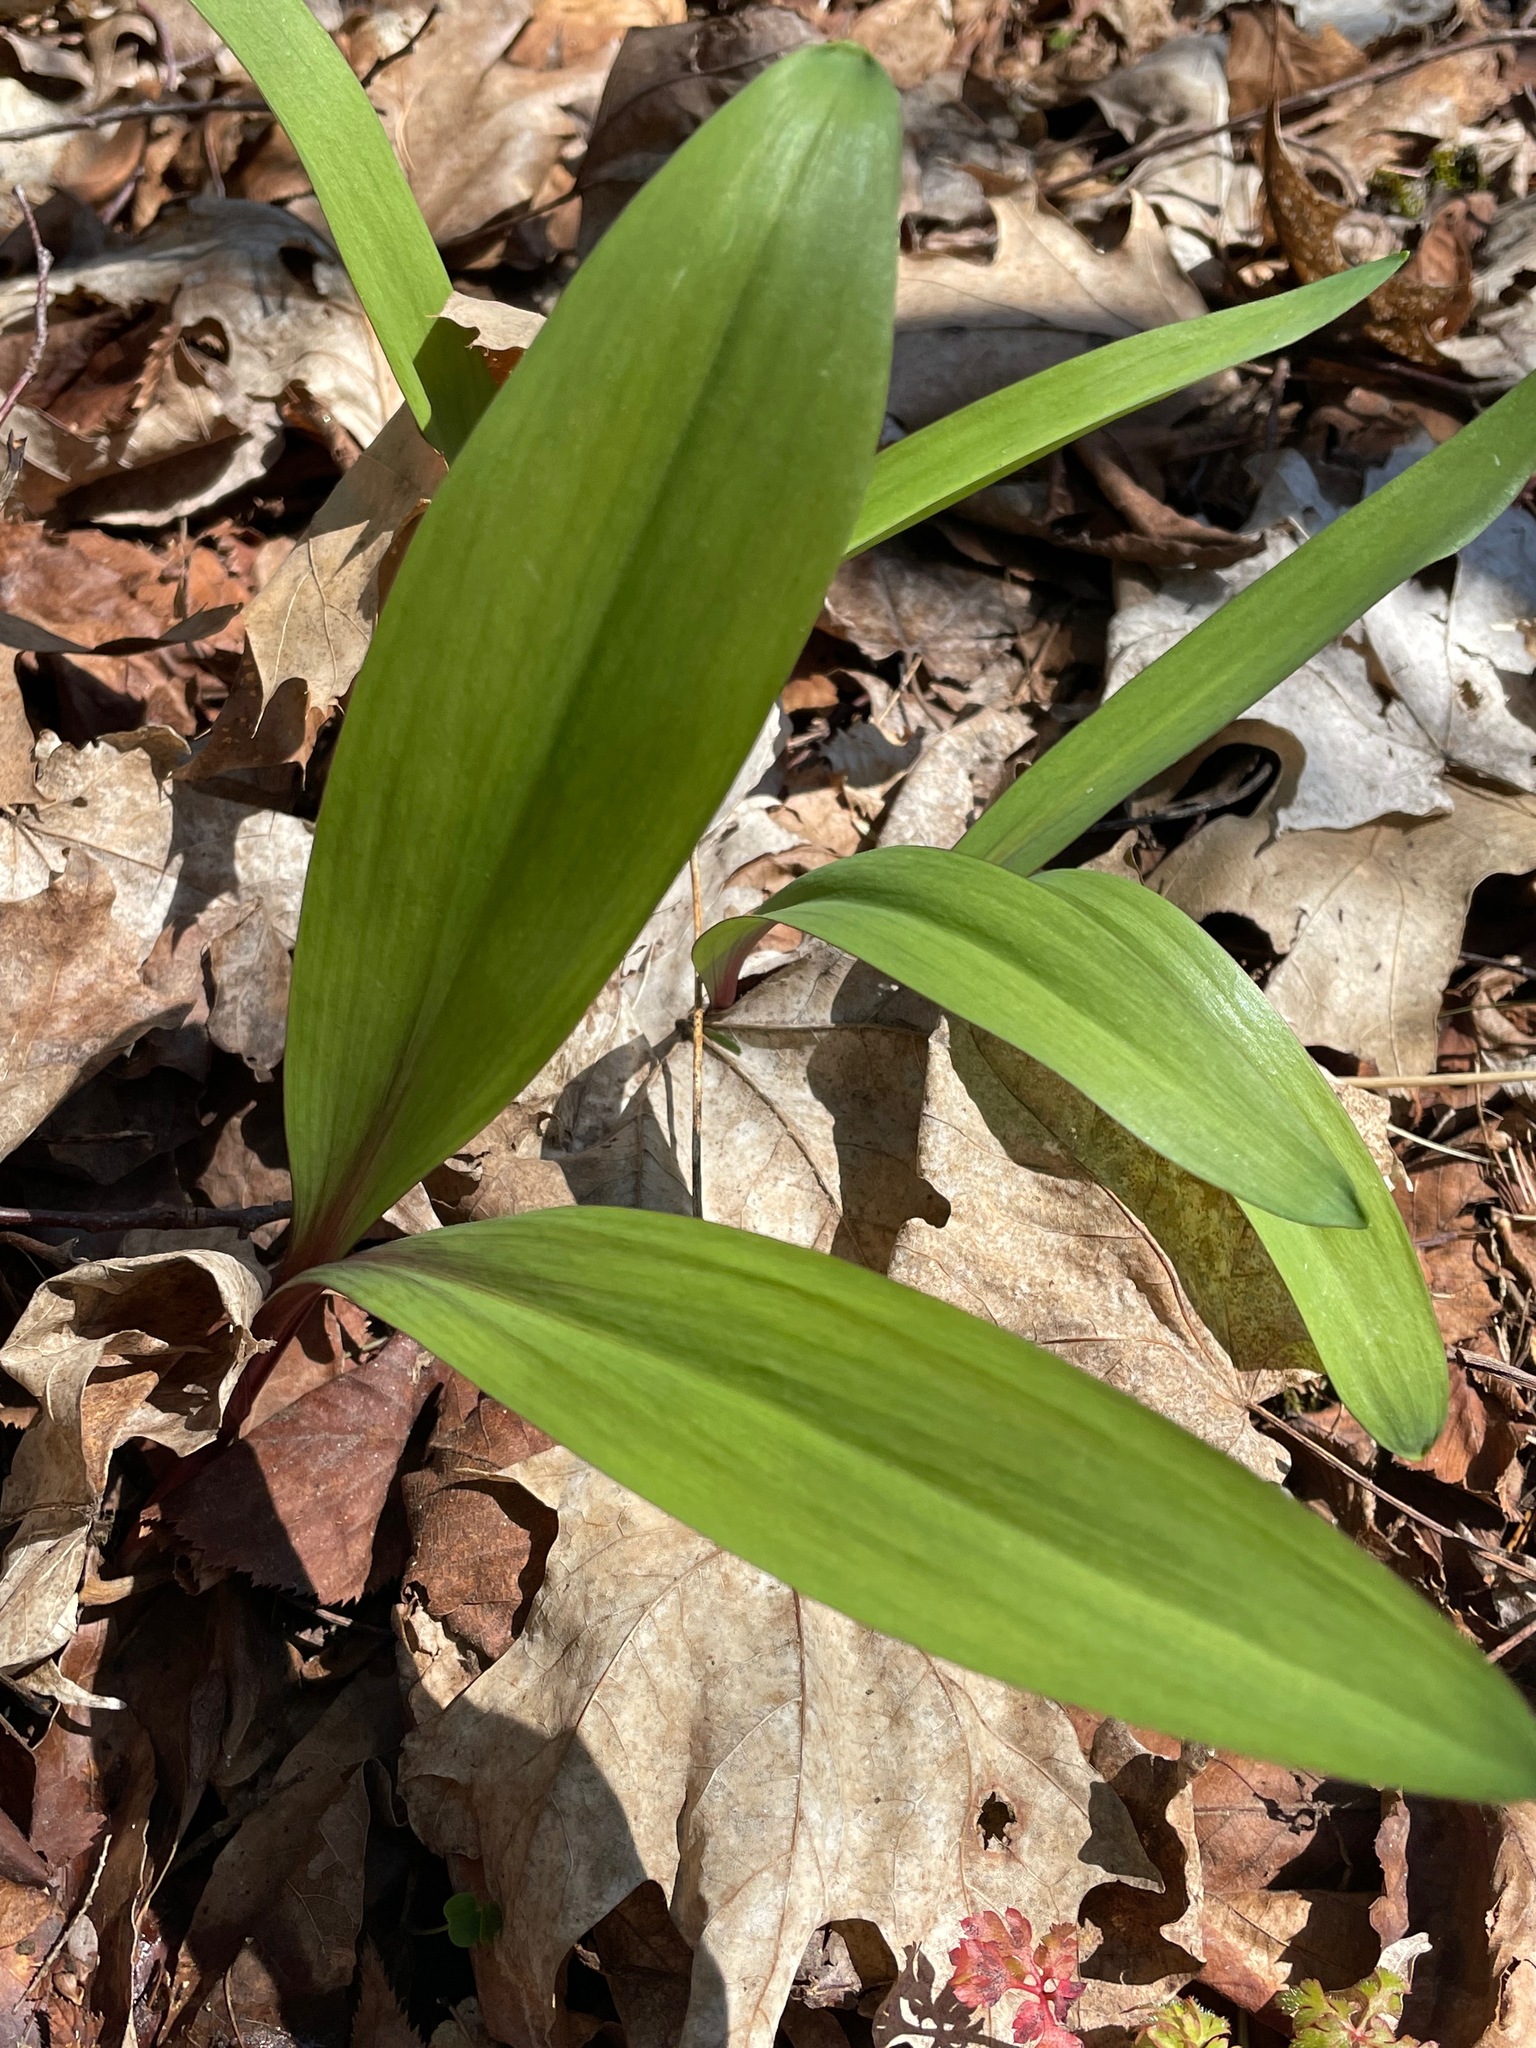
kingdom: Plantae
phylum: Tracheophyta
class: Liliopsida
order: Asparagales
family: Amaryllidaceae
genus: Allium
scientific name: Allium tricoccum
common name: Ramp
